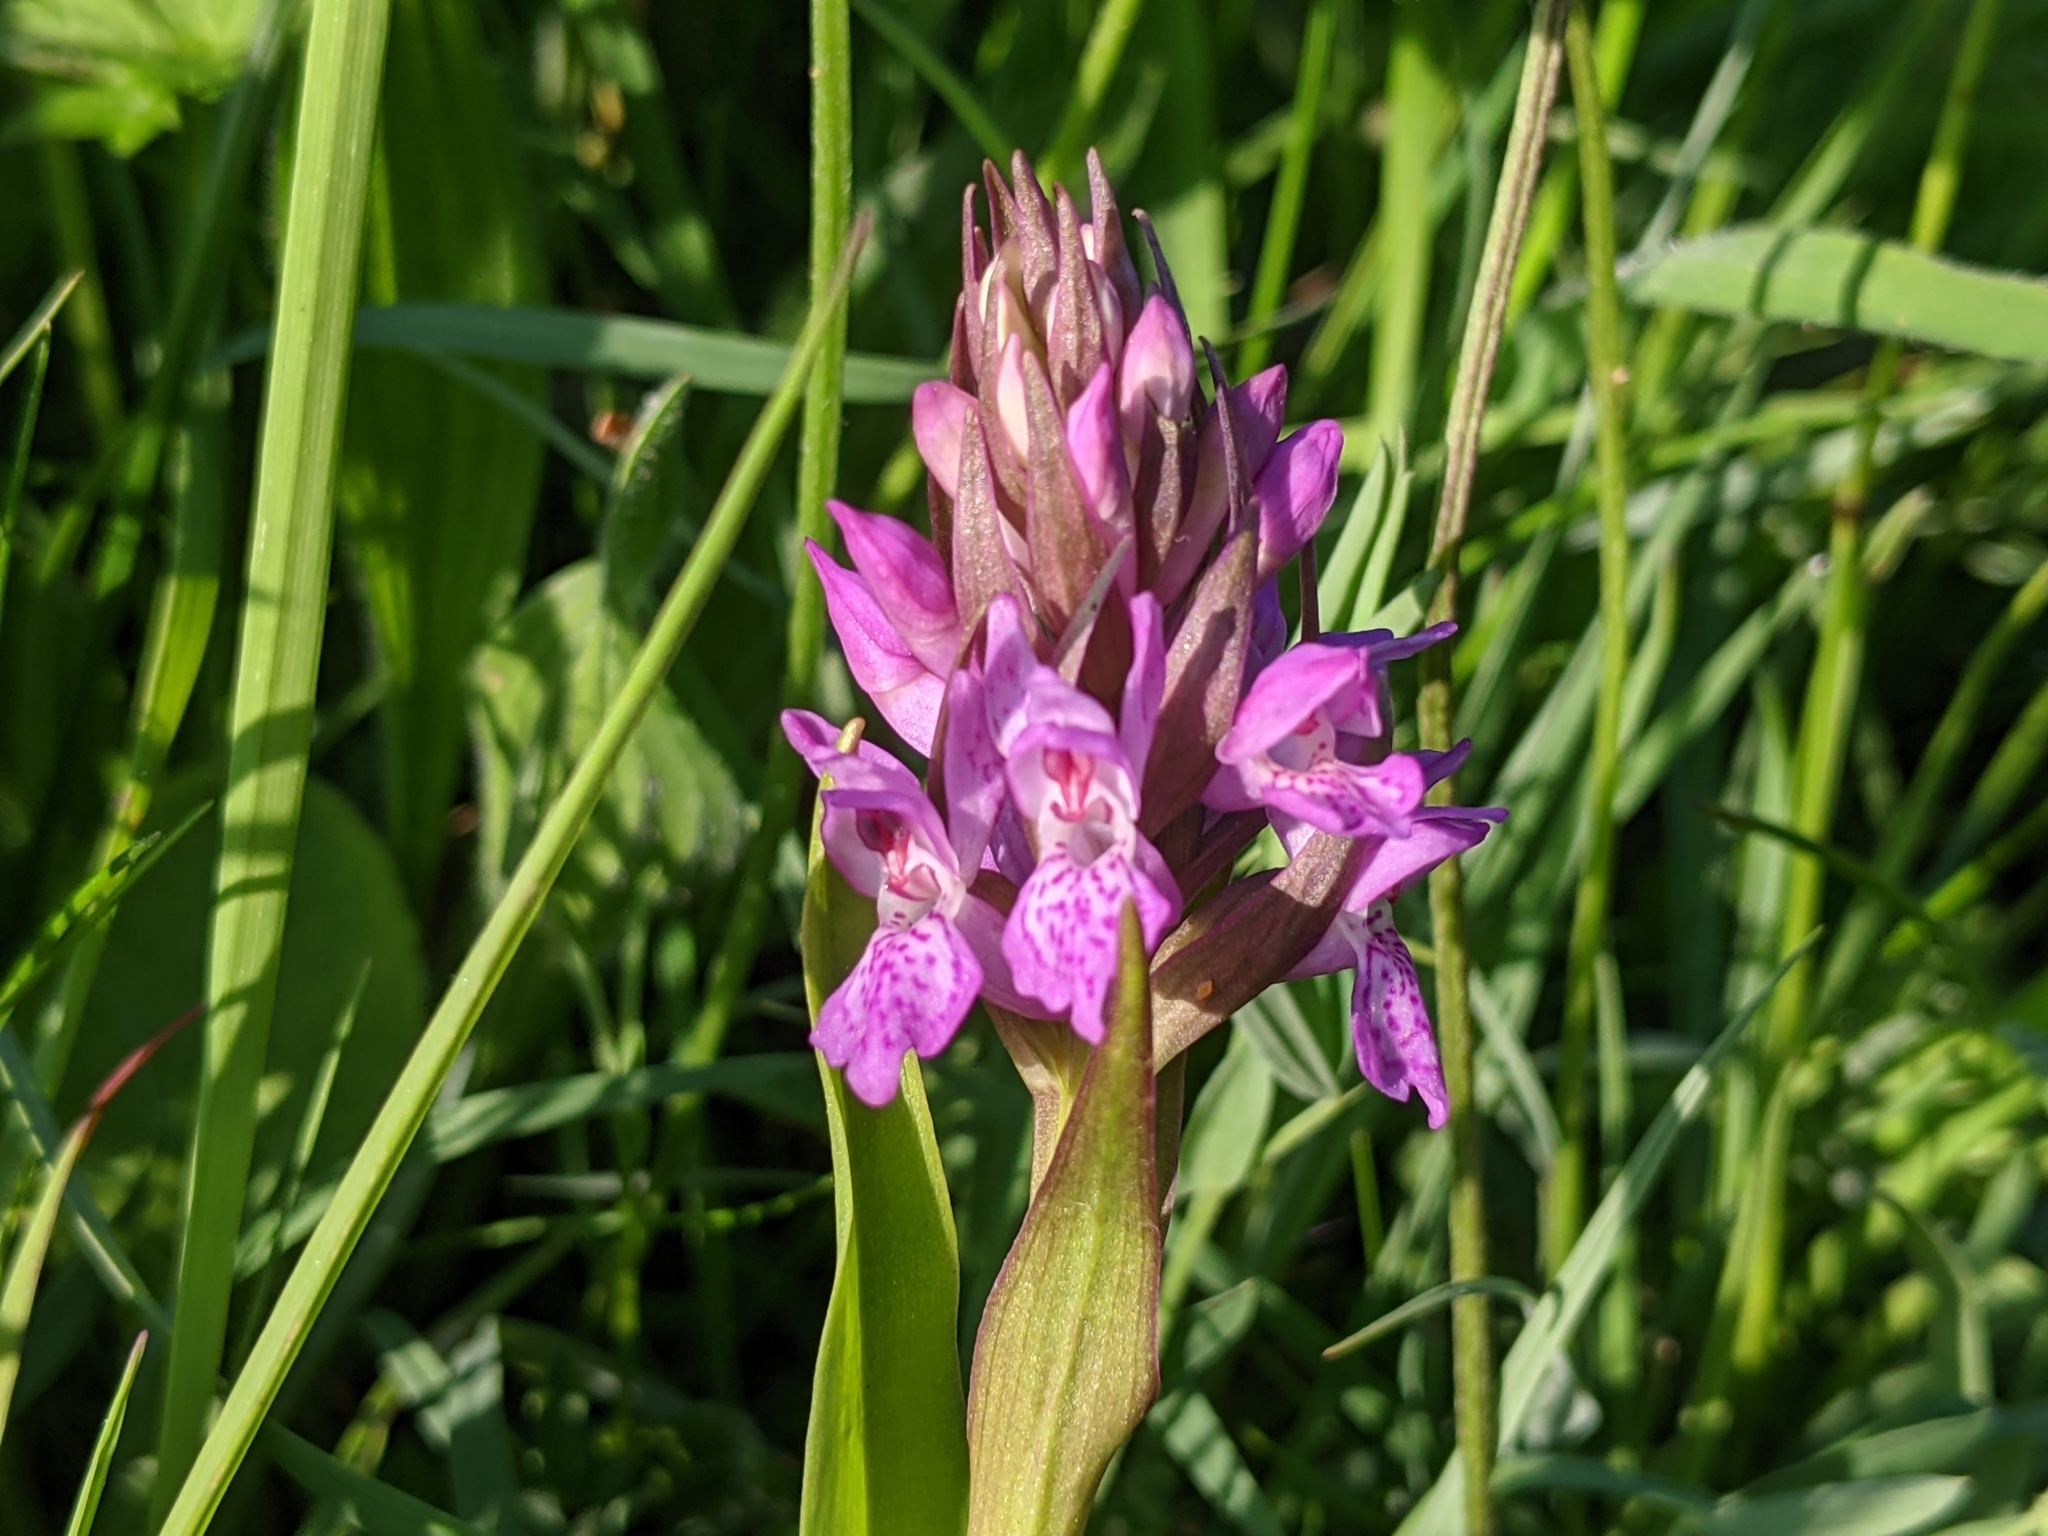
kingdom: Plantae
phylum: Tracheophyta
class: Liliopsida
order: Asparagales
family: Orchidaceae
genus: Dactylorhiza
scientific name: Dactylorhiza incarnata
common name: Early marsh-orchid
